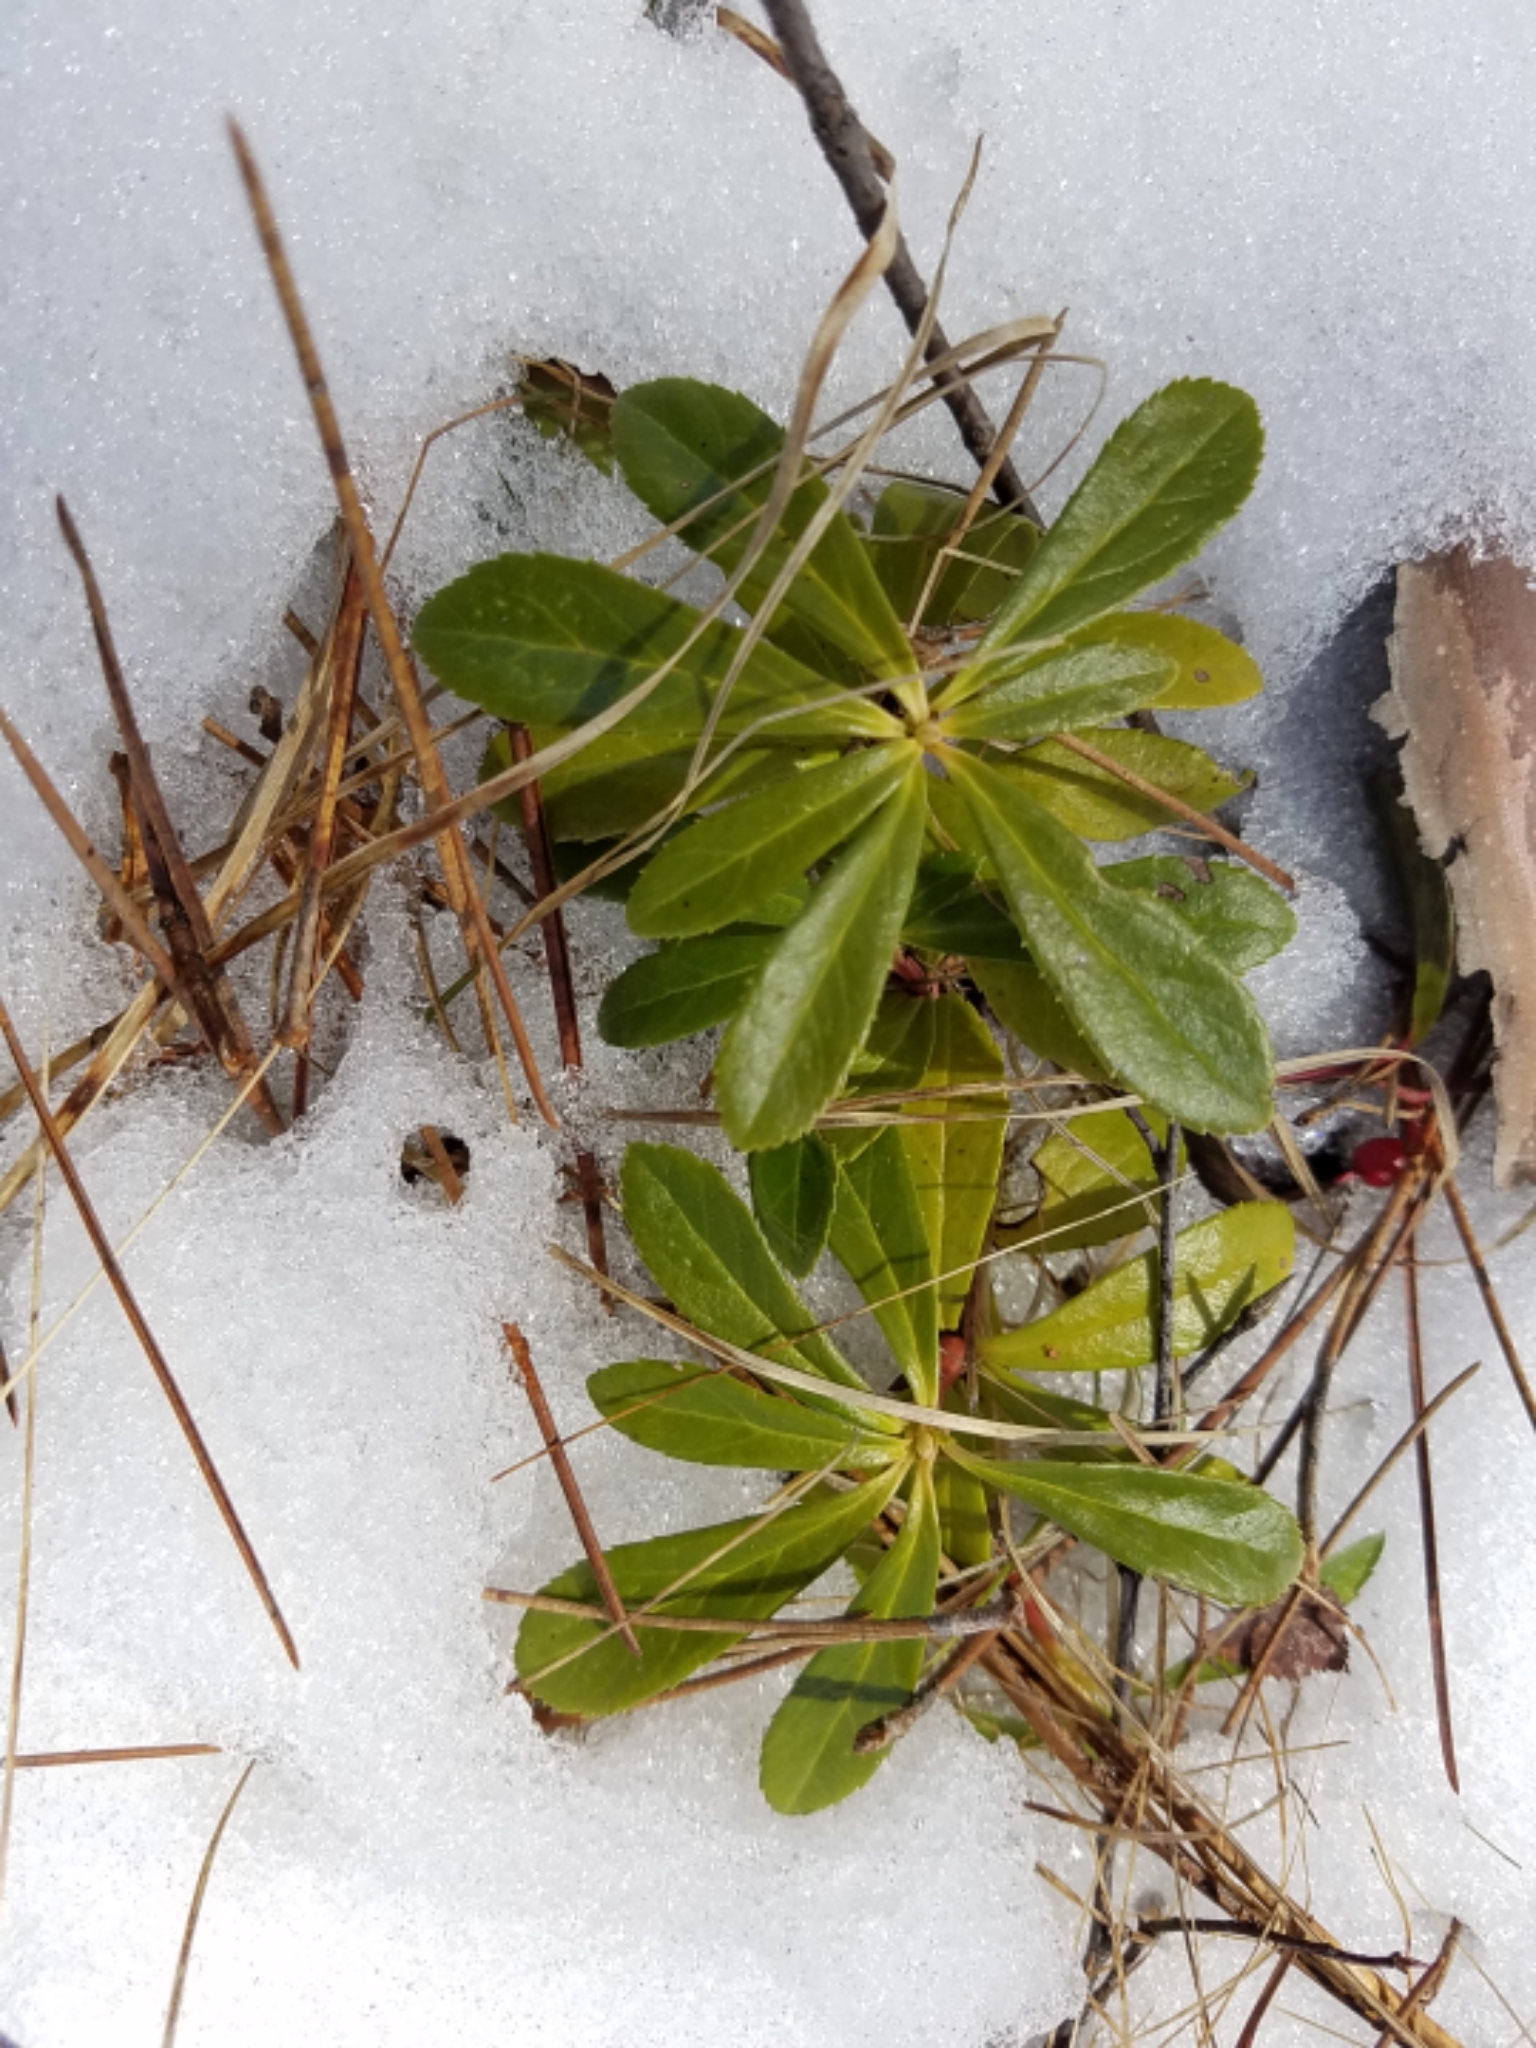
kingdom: Plantae
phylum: Tracheophyta
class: Magnoliopsida
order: Ericales
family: Ericaceae
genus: Chimaphila
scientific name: Chimaphila umbellata
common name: Pipsissewa
